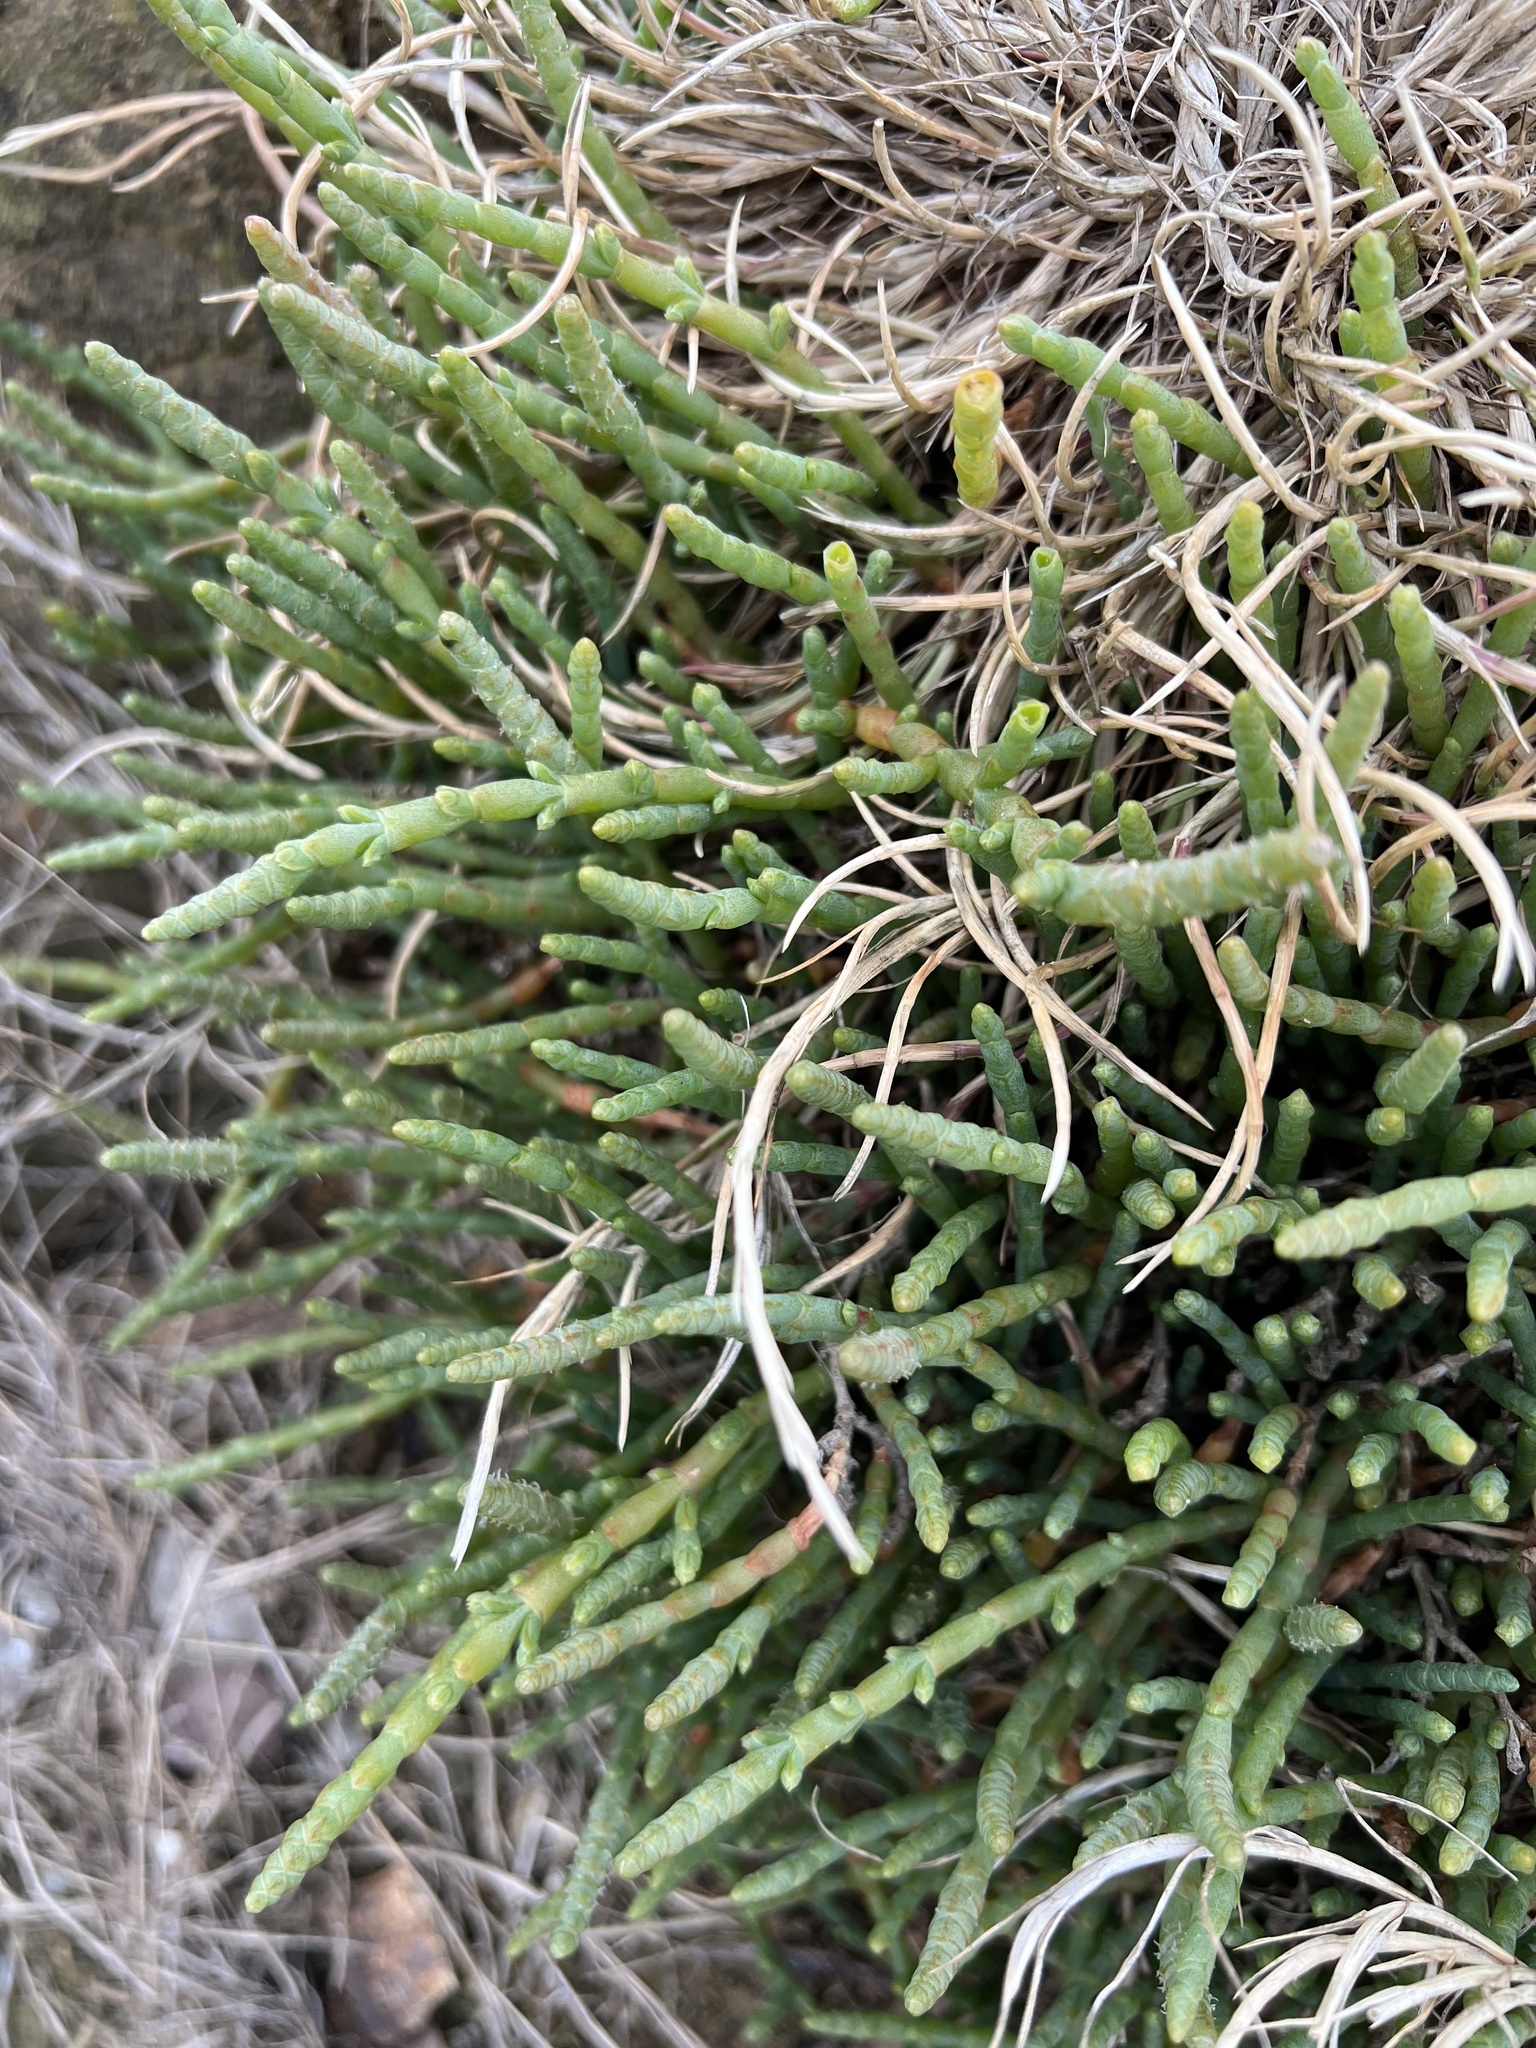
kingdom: Plantae
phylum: Tracheophyta
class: Magnoliopsida
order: Caryophyllales
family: Amaranthaceae
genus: Salicornia
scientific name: Salicornia quinqueflora
